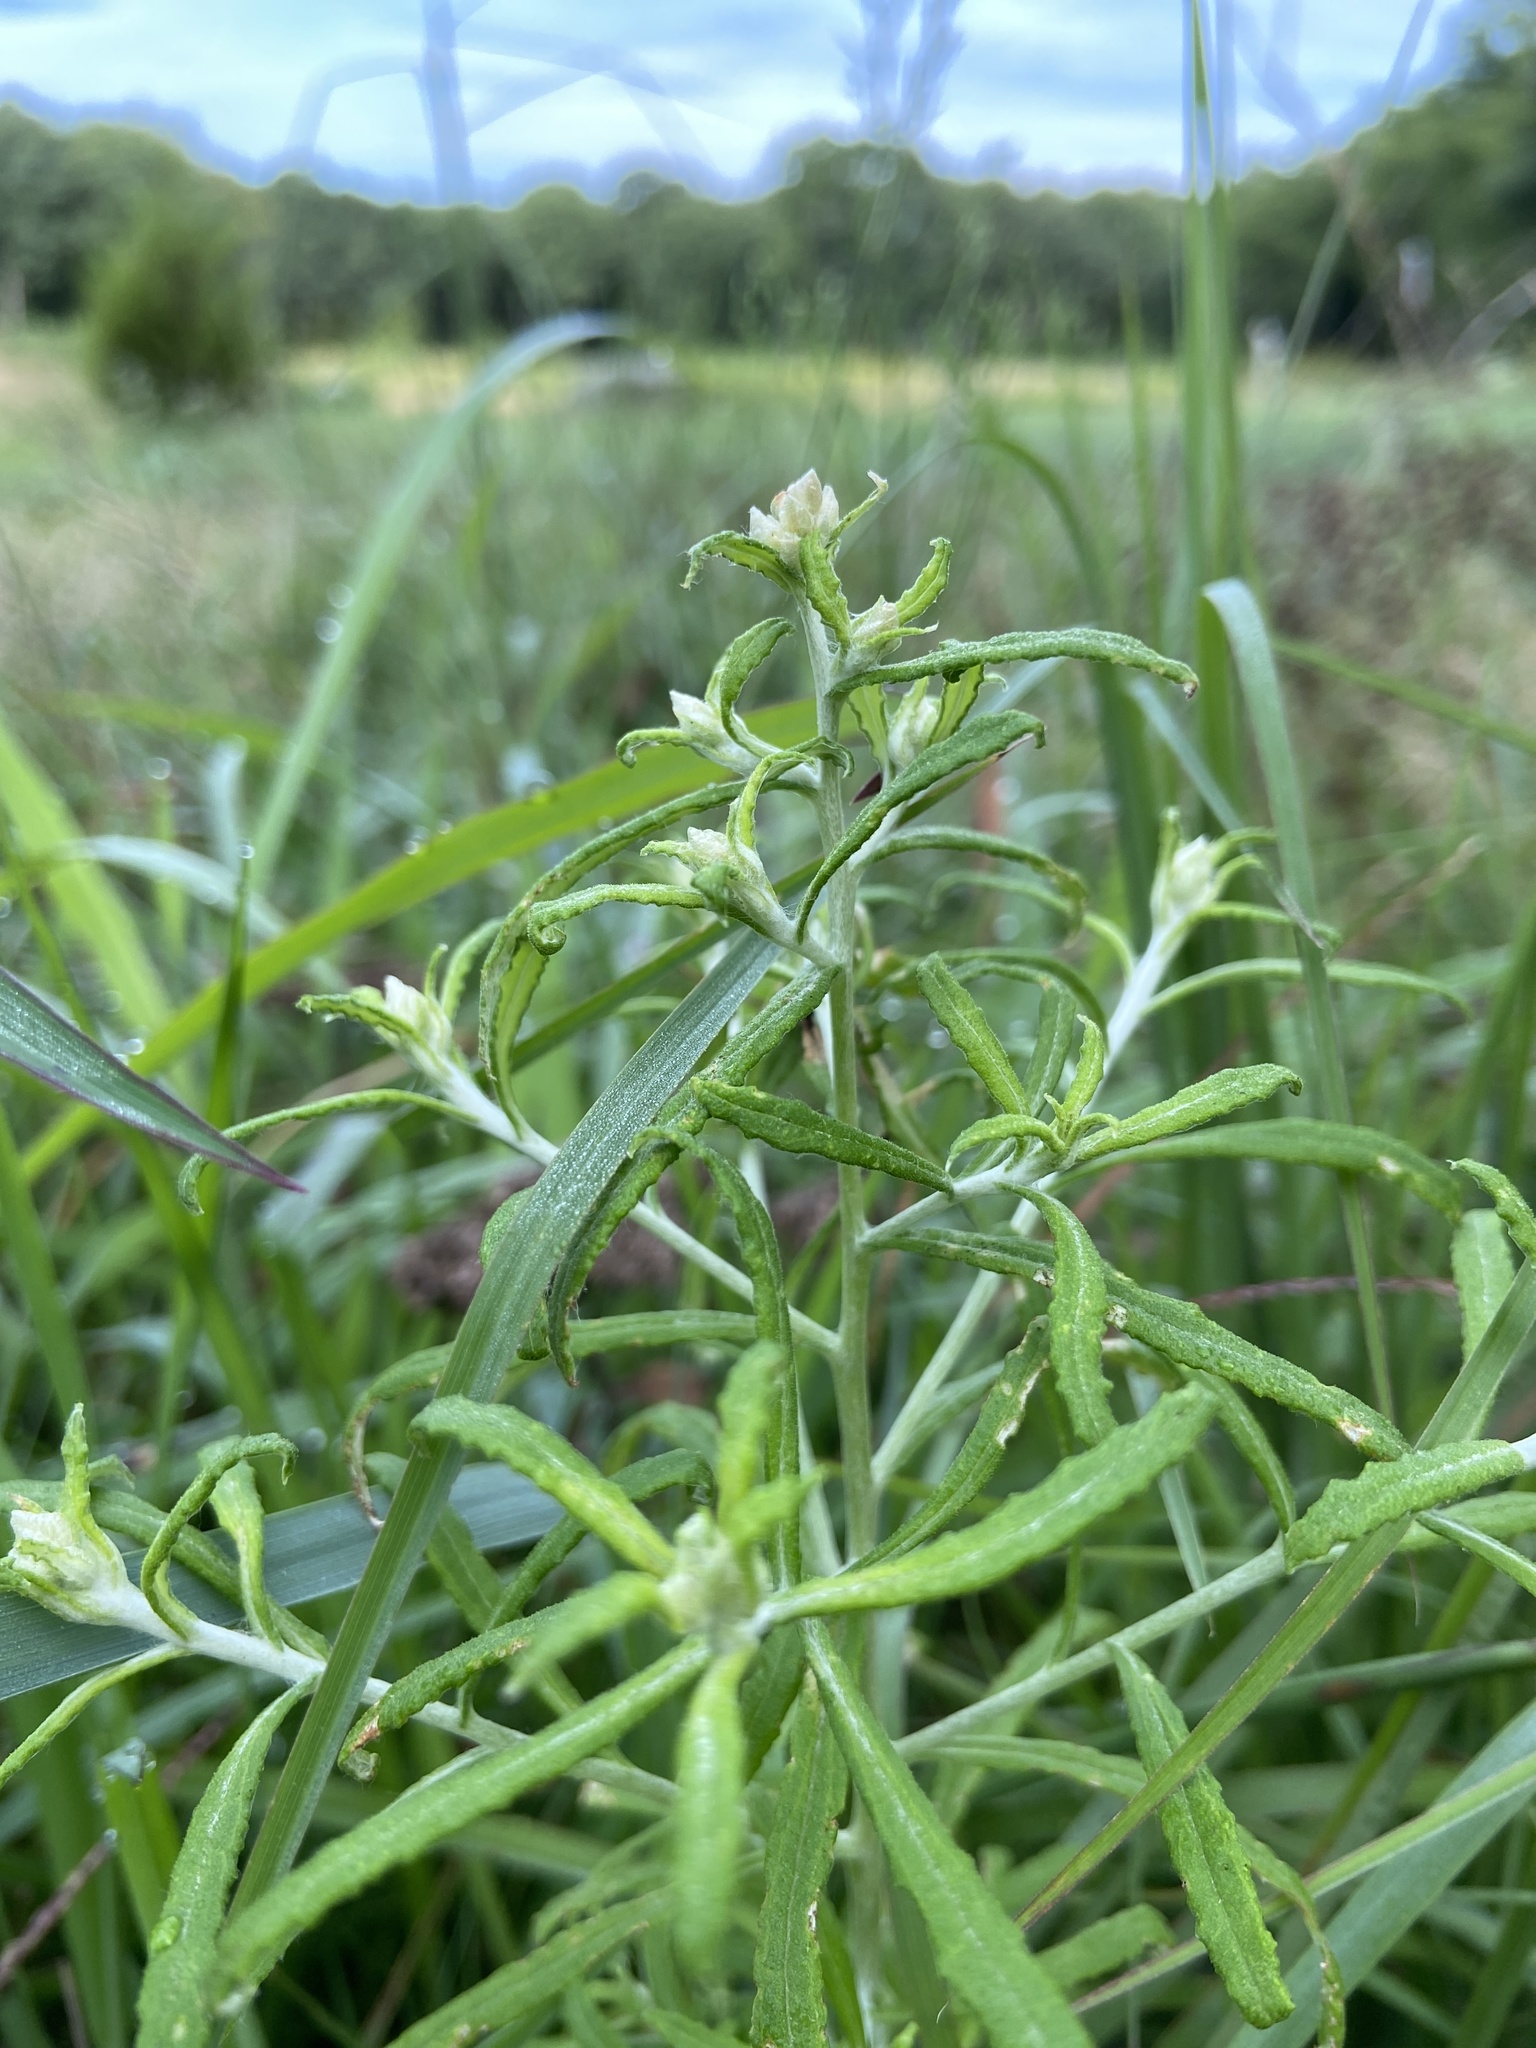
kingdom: Plantae
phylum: Tracheophyta
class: Magnoliopsida
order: Asterales
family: Asteraceae
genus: Pseudognaphalium
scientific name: Pseudognaphalium obtusifolium
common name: Eastern rabbit-tobacco
